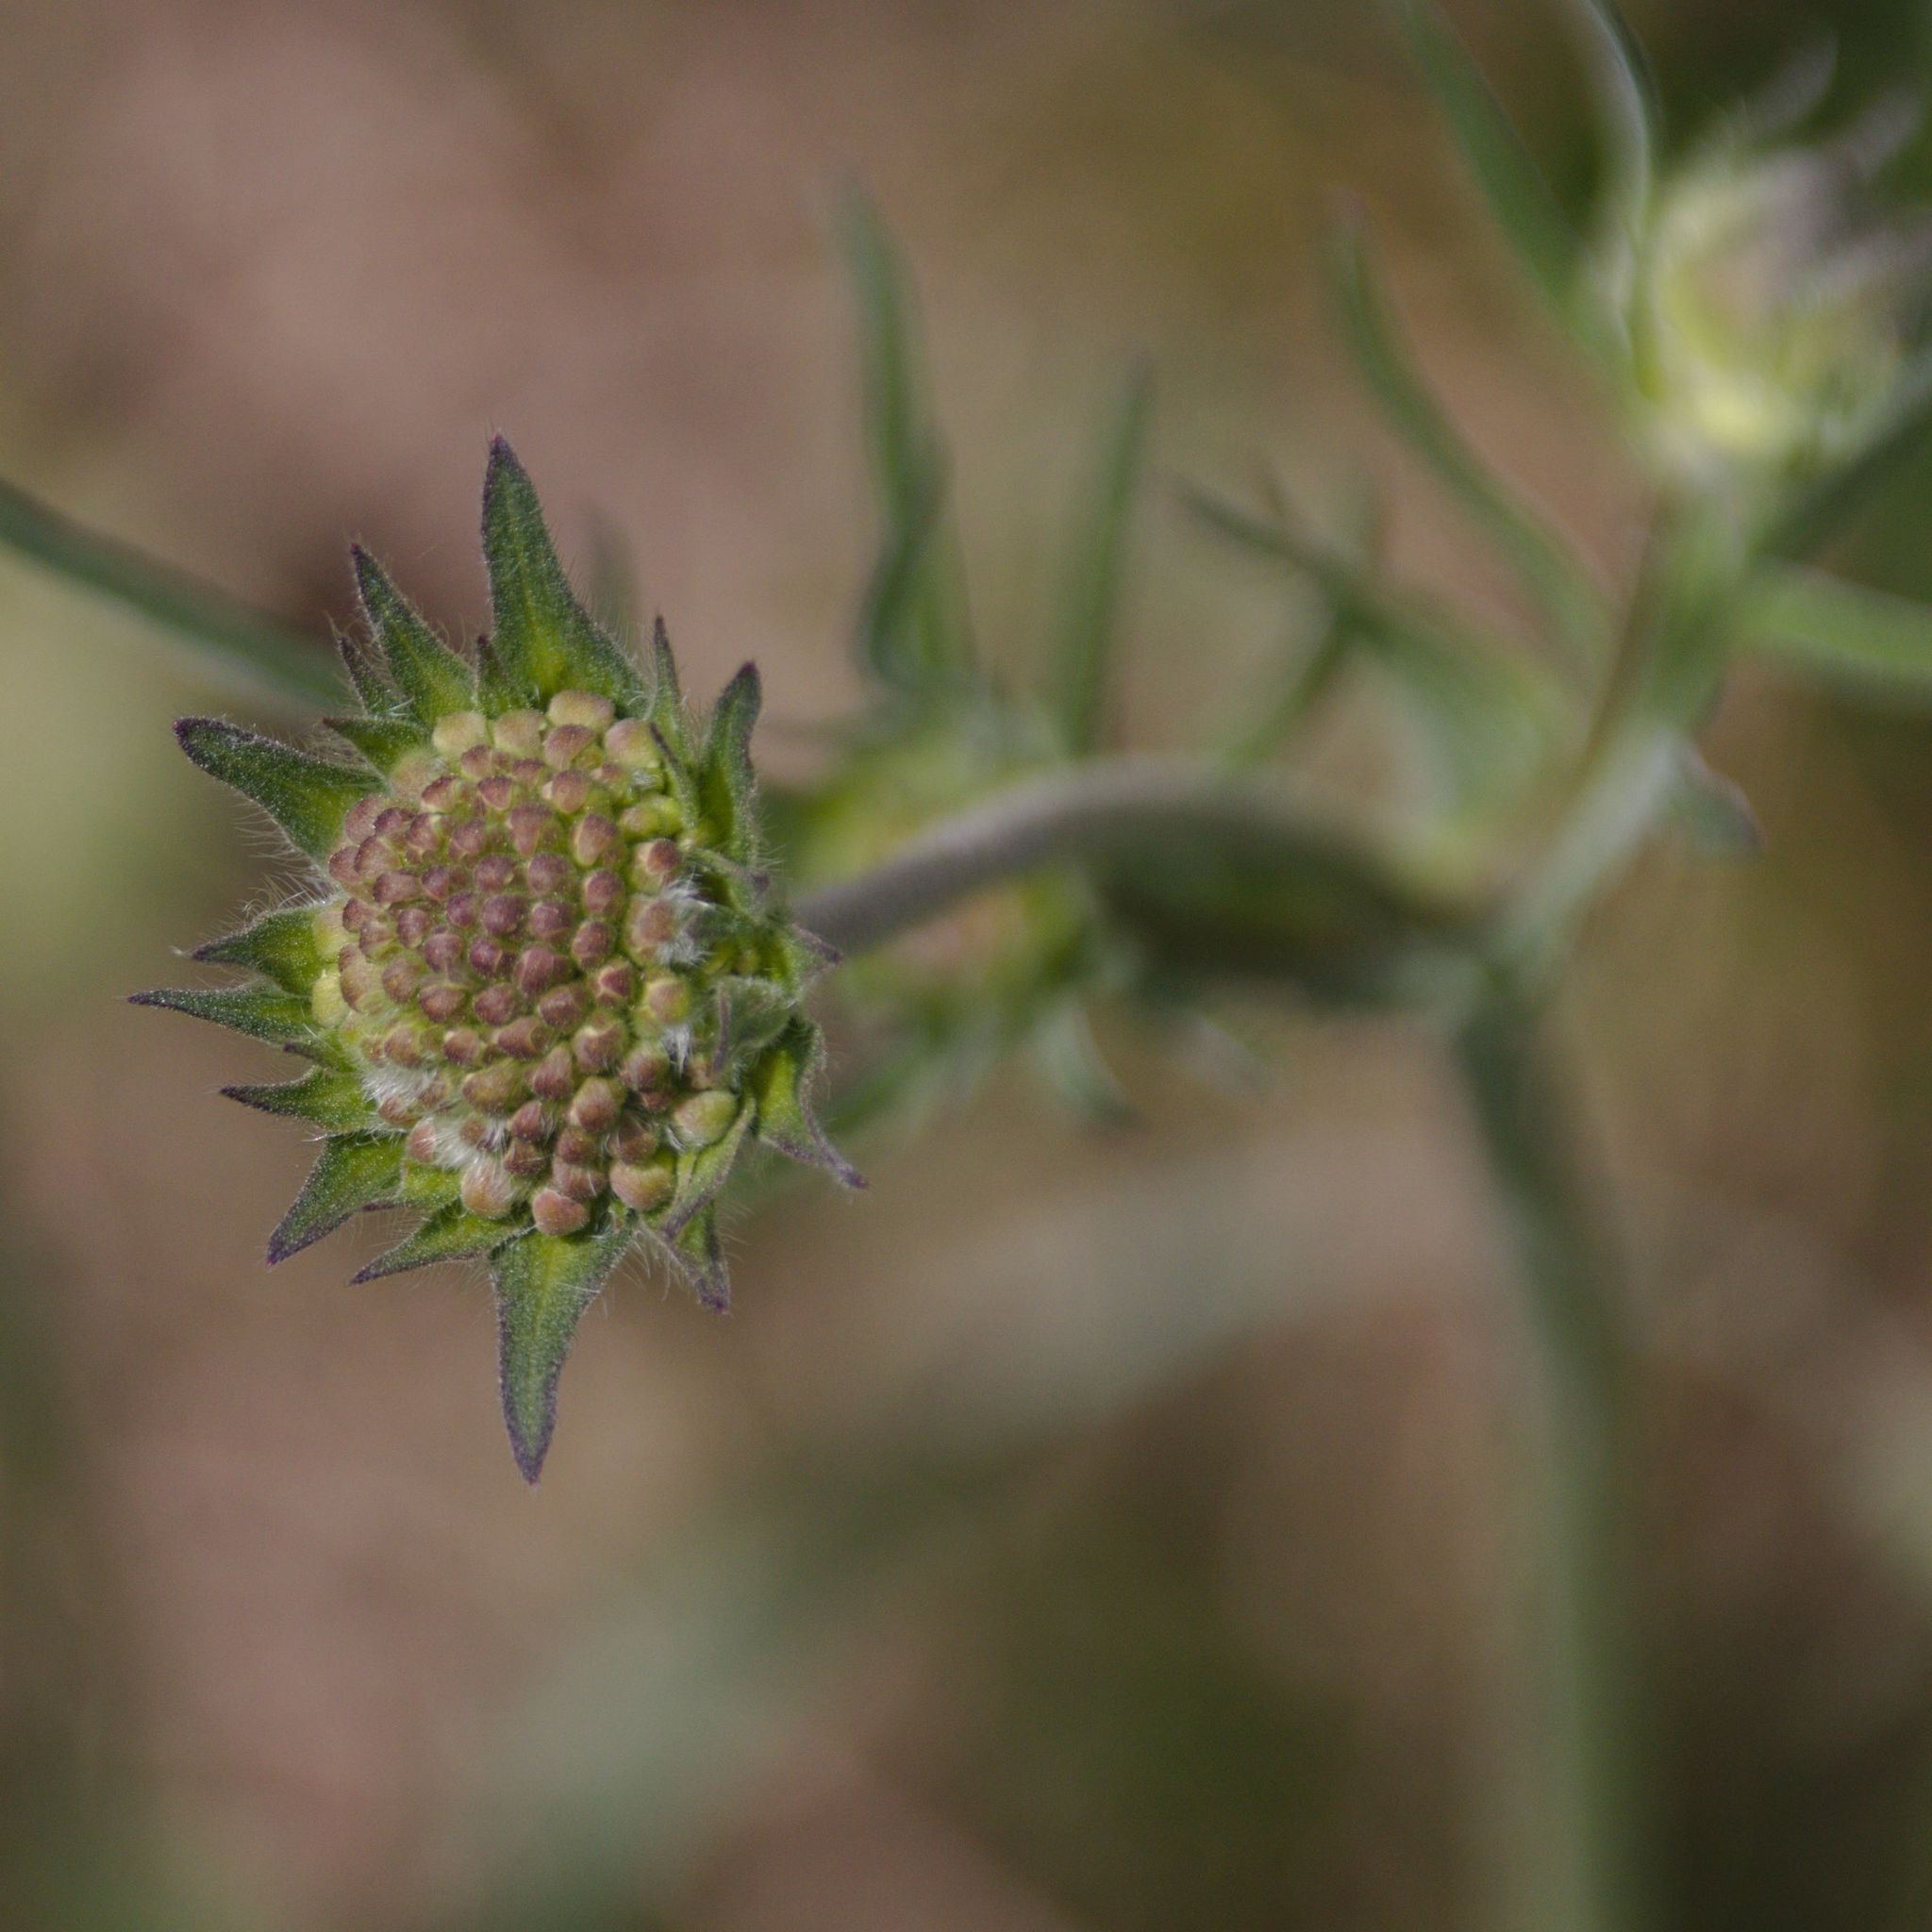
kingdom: Plantae
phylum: Tracheophyta
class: Magnoliopsida
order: Dipsacales
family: Caprifoliaceae
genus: Knautia
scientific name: Knautia arvensis
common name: Field scabiosa
